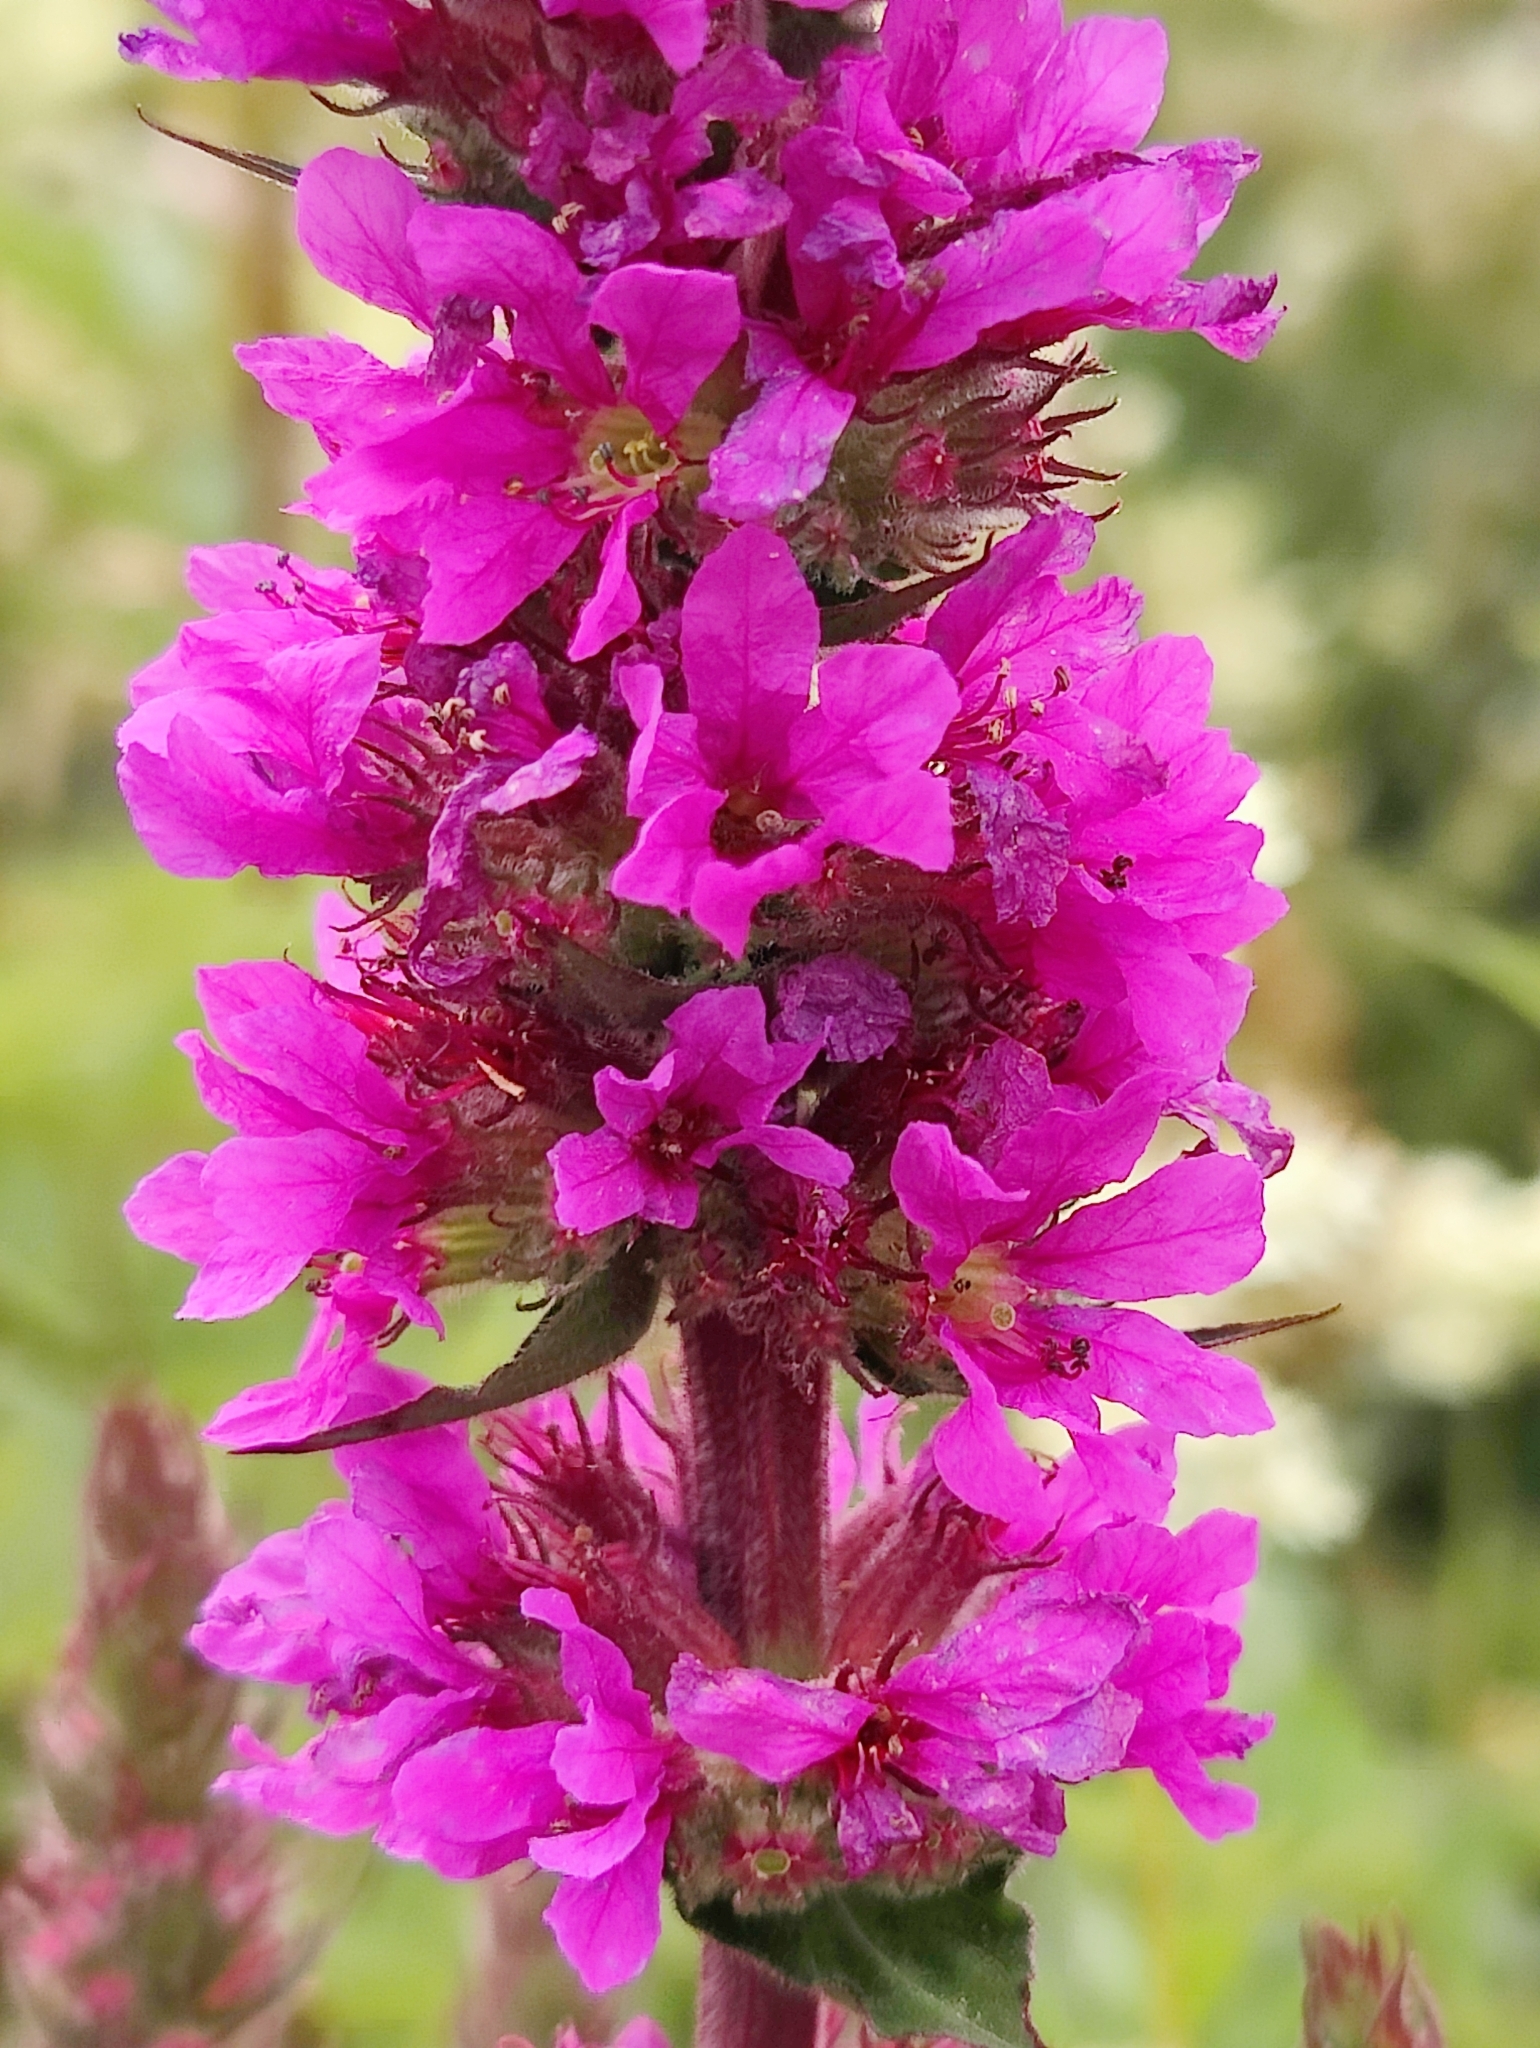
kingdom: Plantae
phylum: Tracheophyta
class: Magnoliopsida
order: Myrtales
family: Lythraceae
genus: Lythrum
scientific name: Lythrum salicaria
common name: Purple loosestrife
